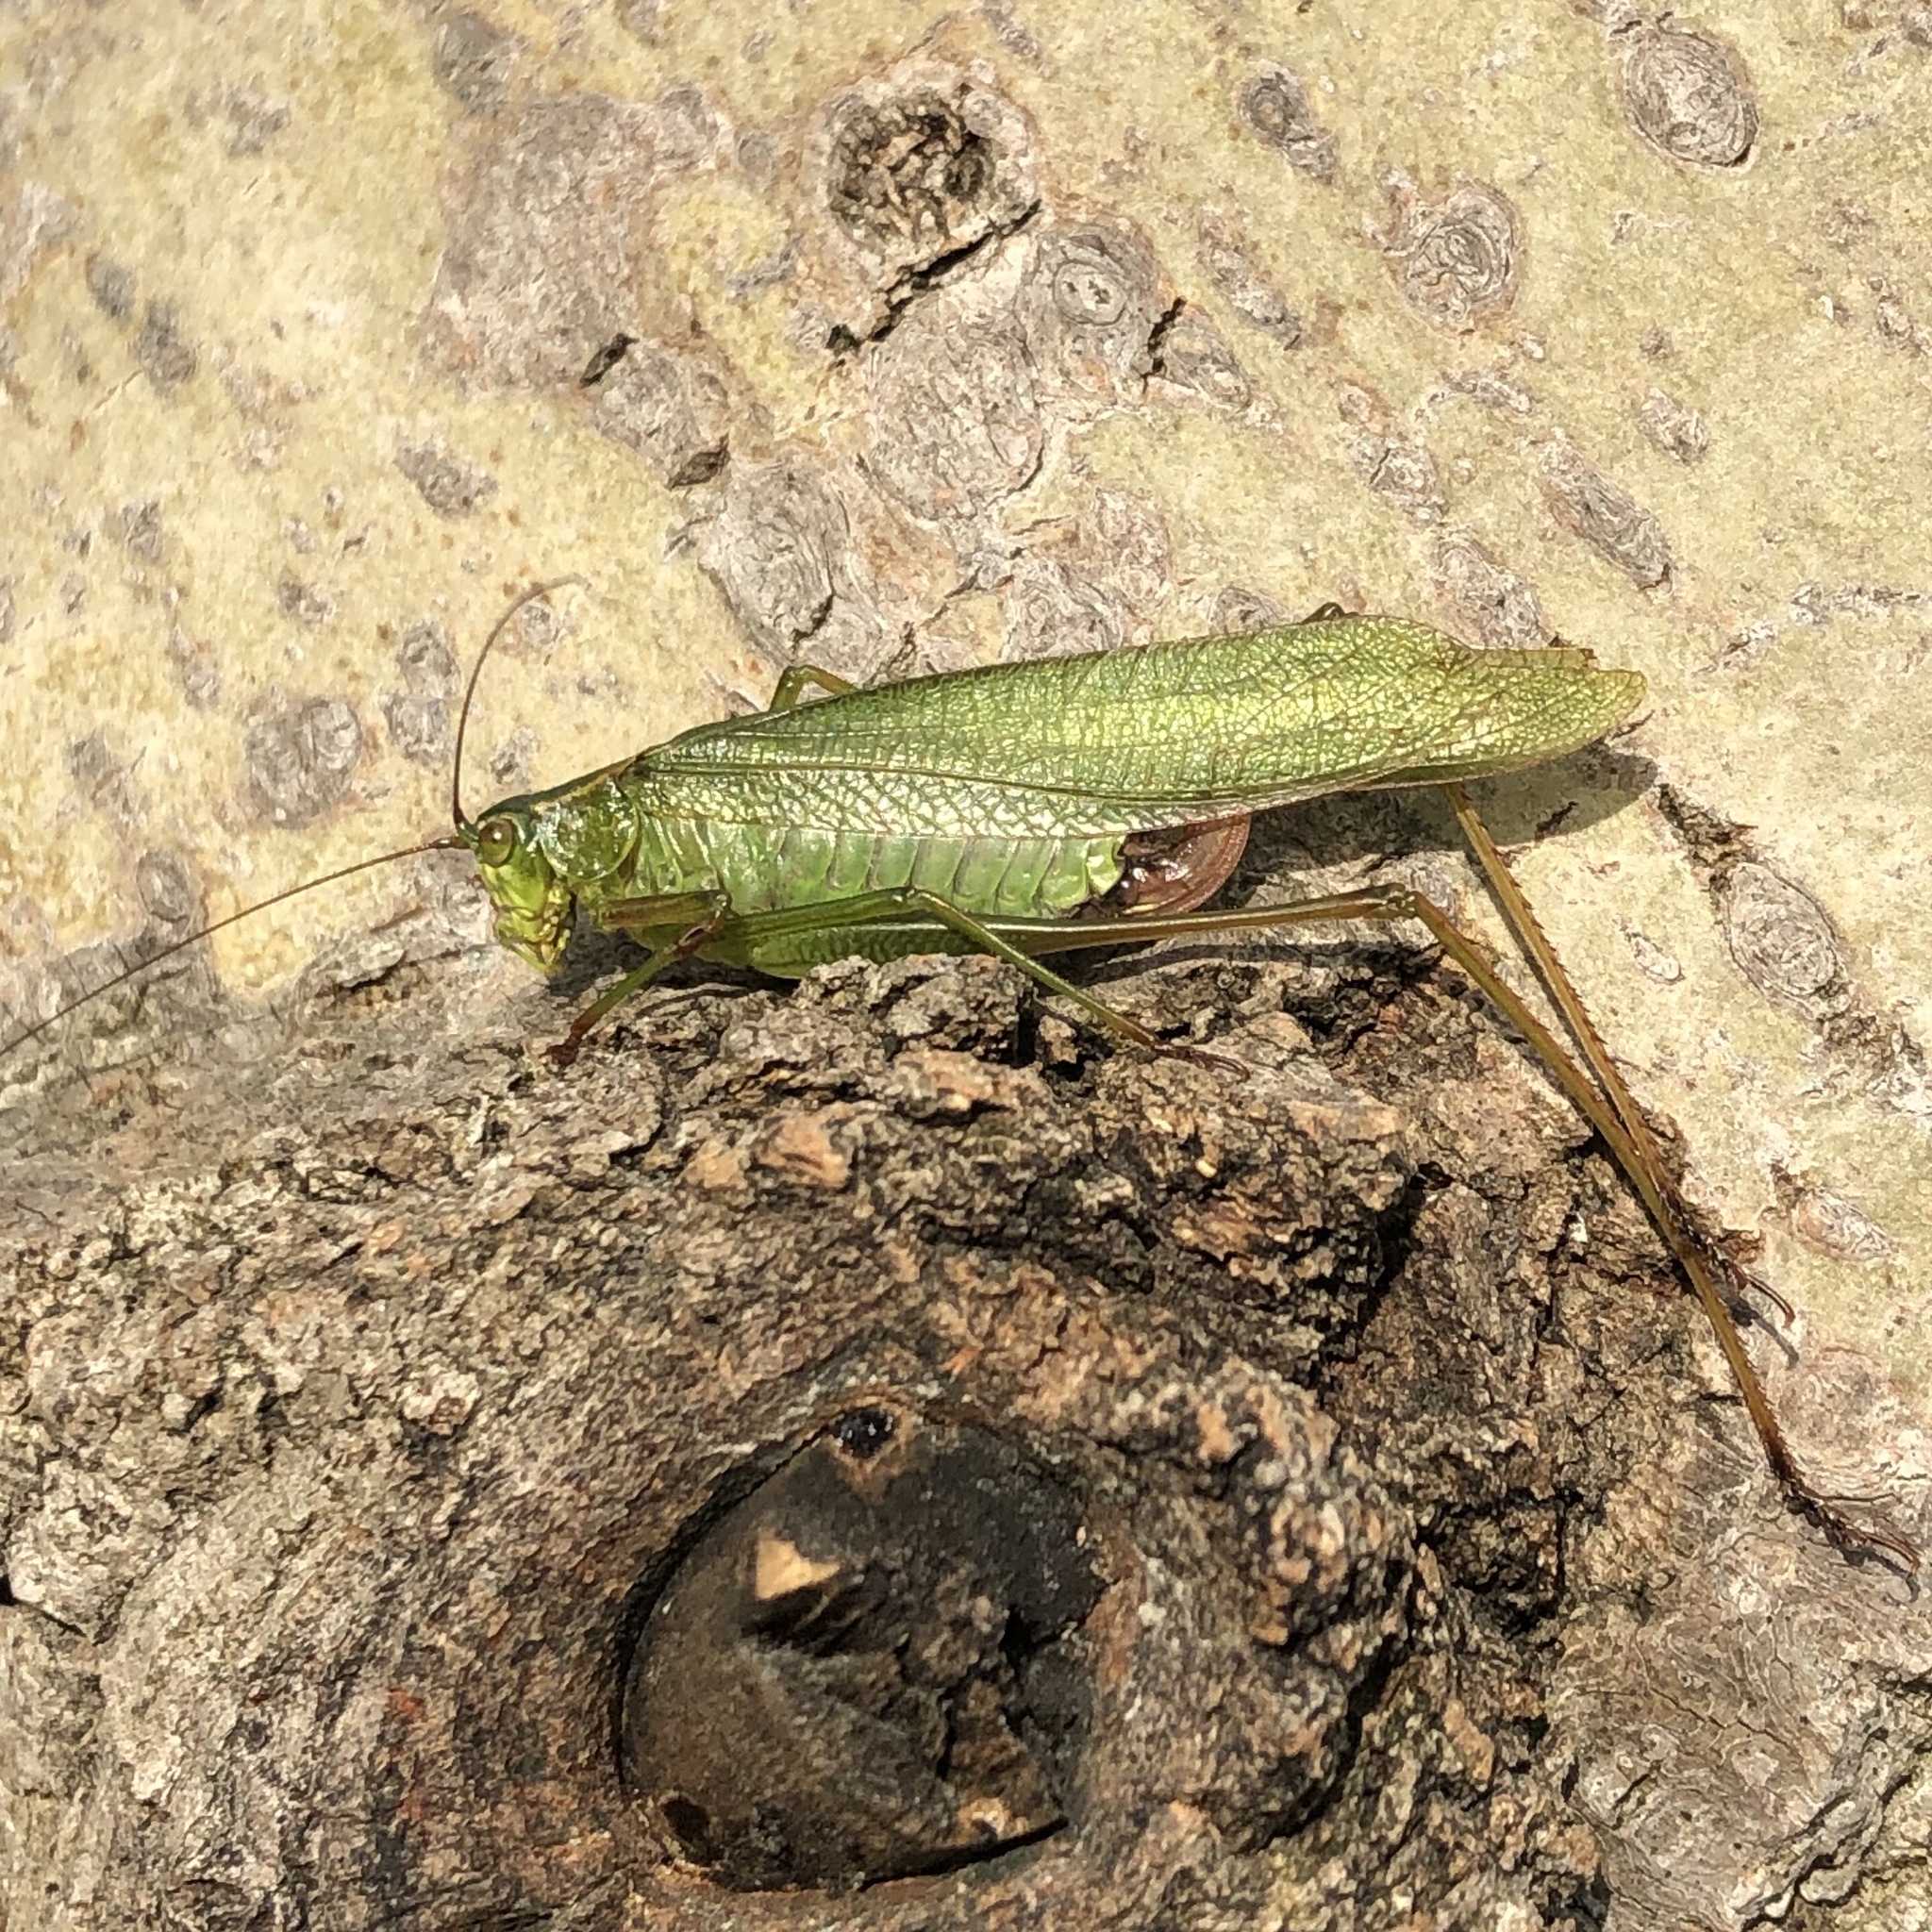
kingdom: Animalia
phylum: Arthropoda
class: Insecta
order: Orthoptera
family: Tettigoniidae
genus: Scudderia
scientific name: Scudderia furcata
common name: Fork-tailed bush katydid
